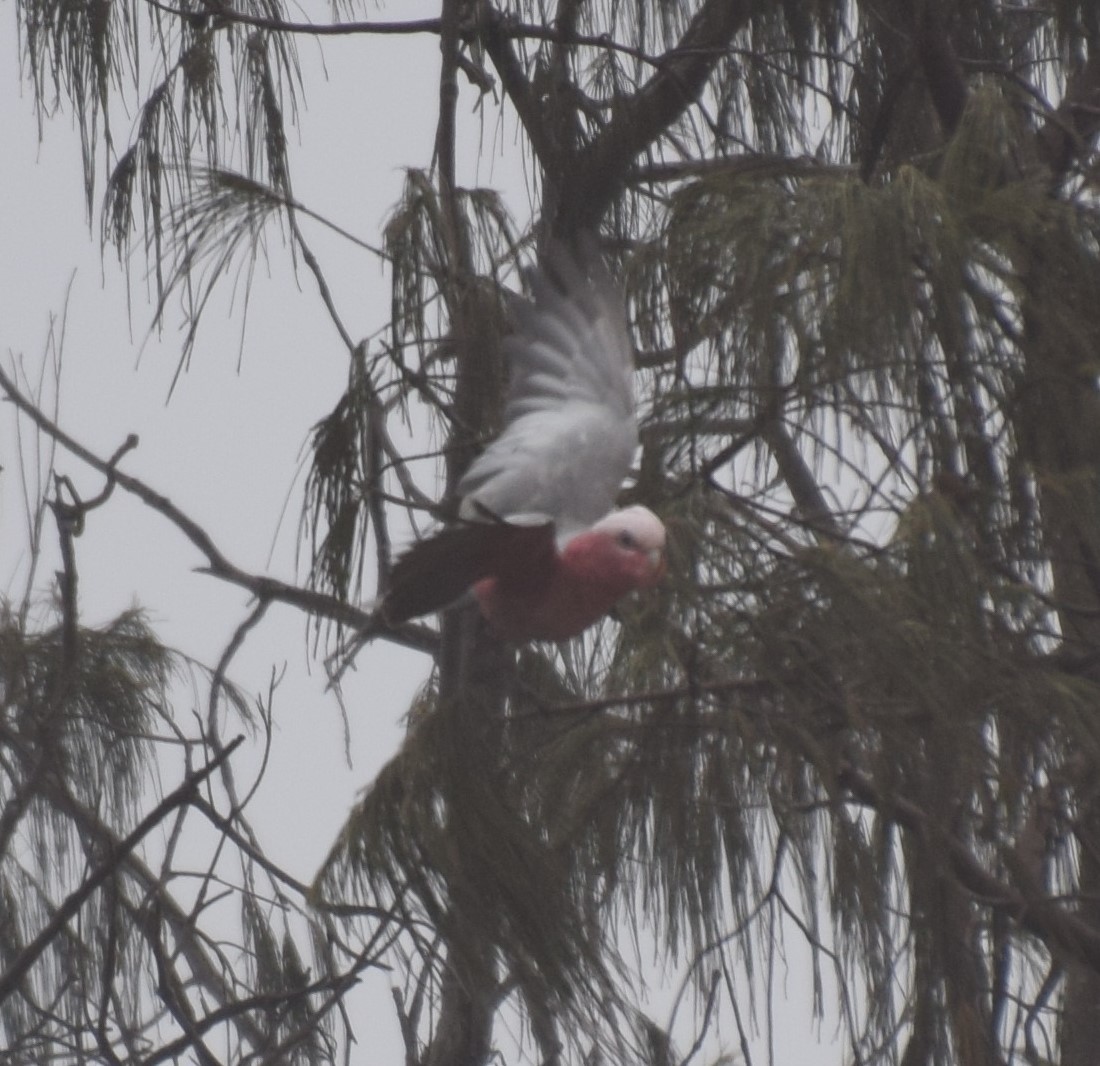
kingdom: Animalia
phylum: Chordata
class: Aves
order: Psittaciformes
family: Psittacidae
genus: Eolophus
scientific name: Eolophus roseicapilla
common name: Galah
